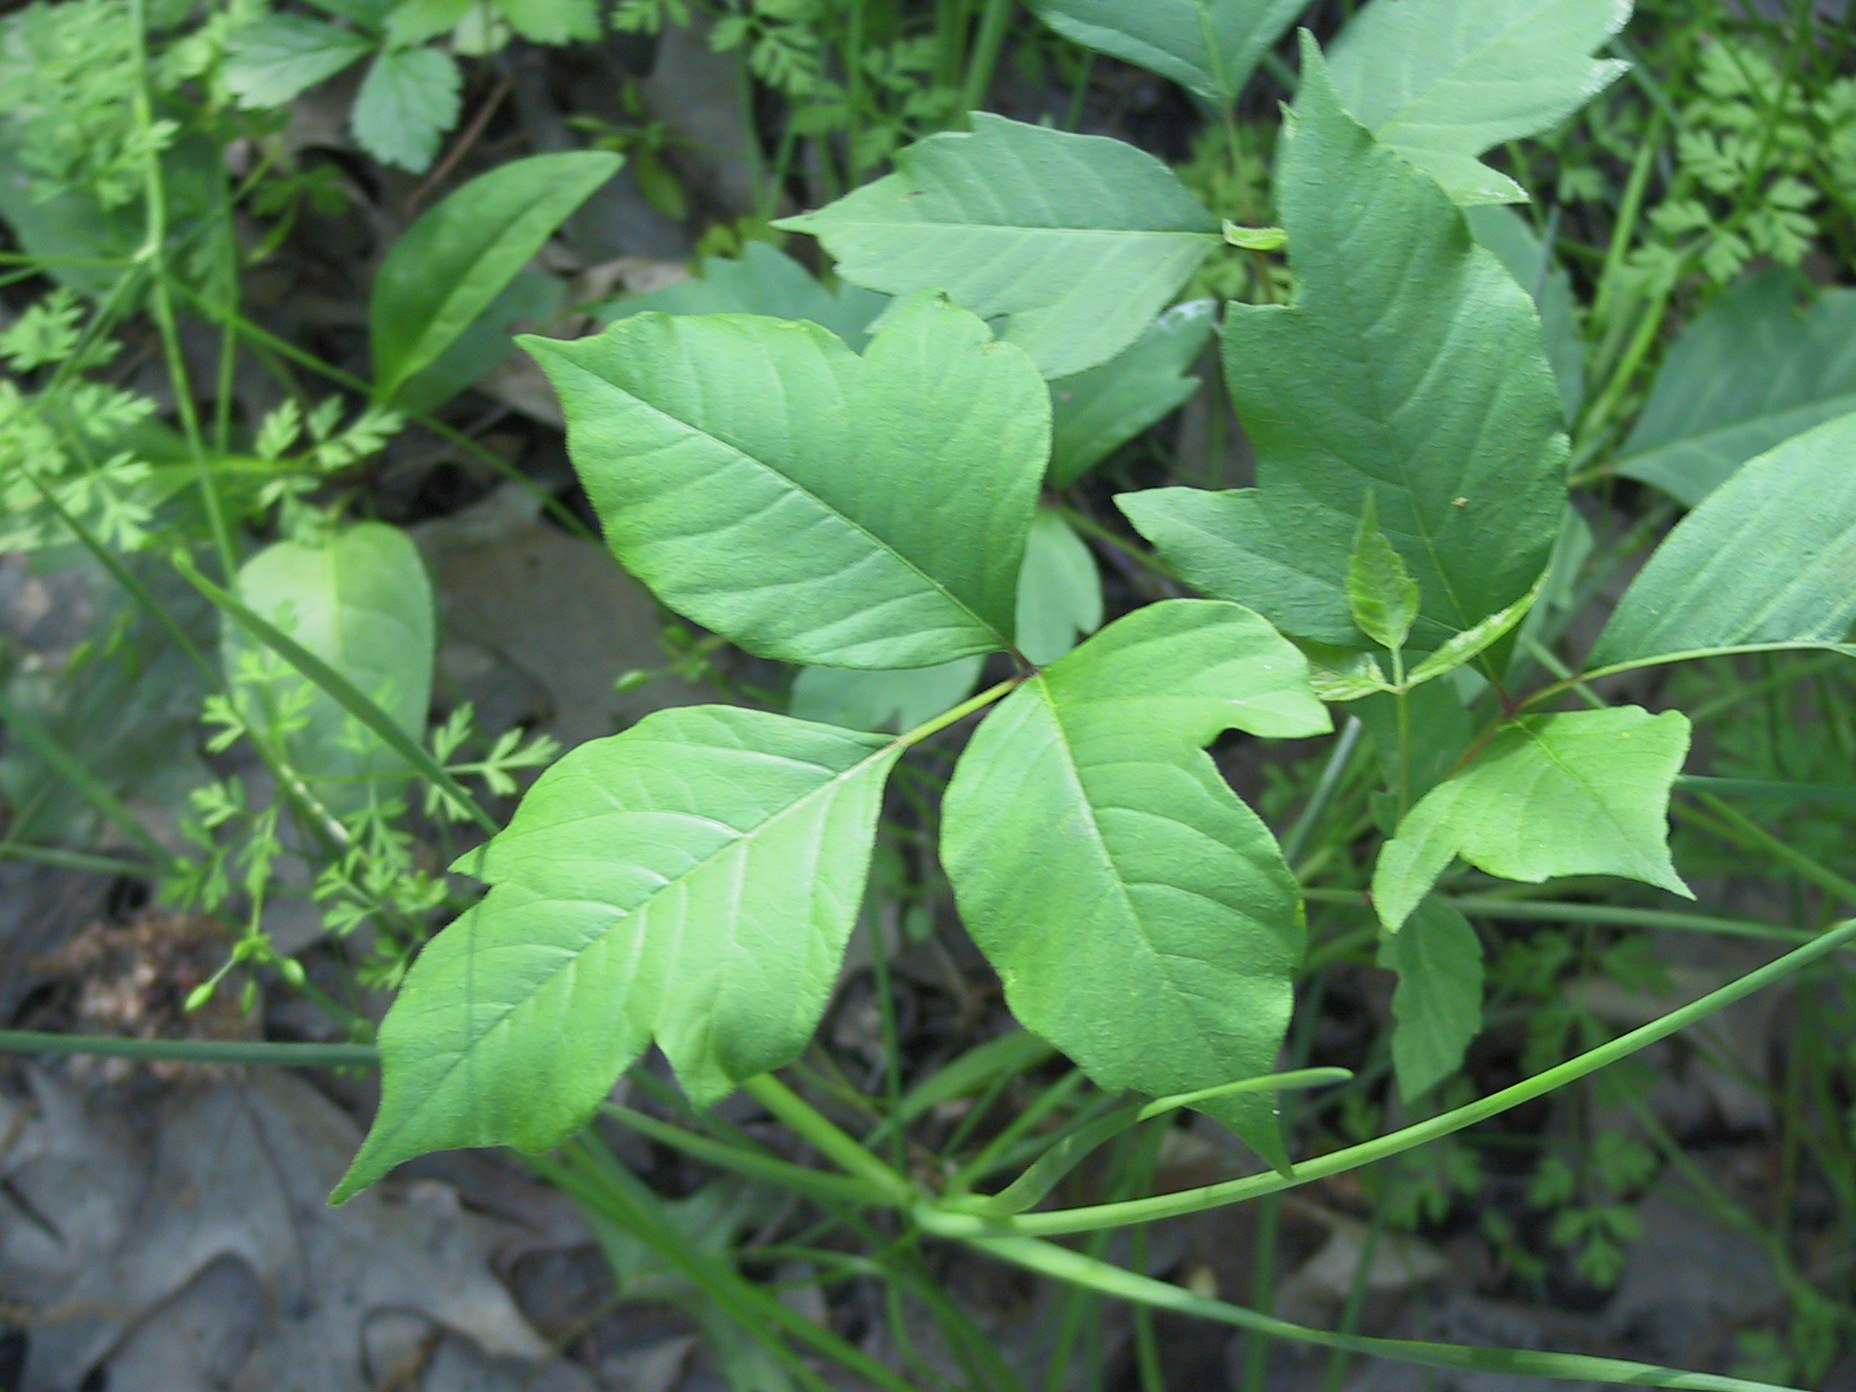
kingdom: Plantae
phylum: Tracheophyta
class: Magnoliopsida
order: Sapindales
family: Anacardiaceae
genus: Toxicodendron
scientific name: Toxicodendron radicans
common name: Poison ivy
